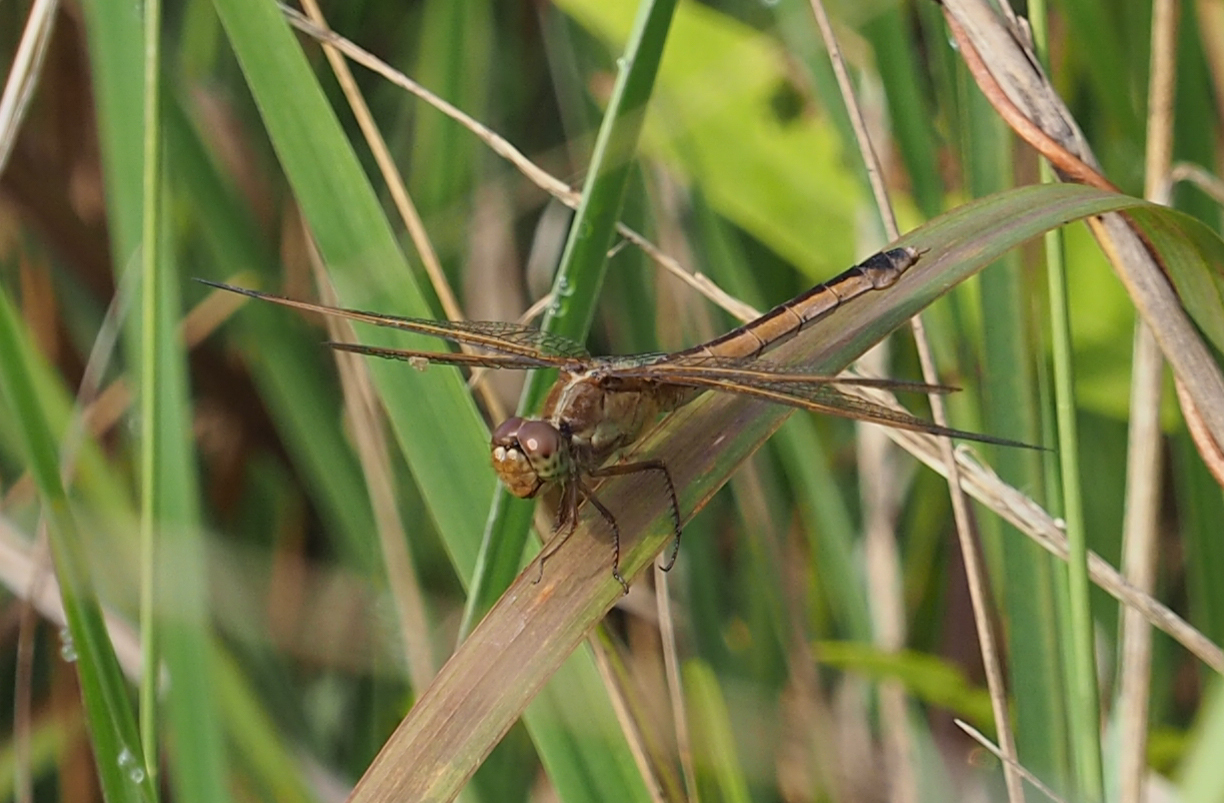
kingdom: Animalia
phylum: Arthropoda
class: Insecta
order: Odonata
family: Libellulidae
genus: Libellula
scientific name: Libellula needhami
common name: Needham's skimmer
